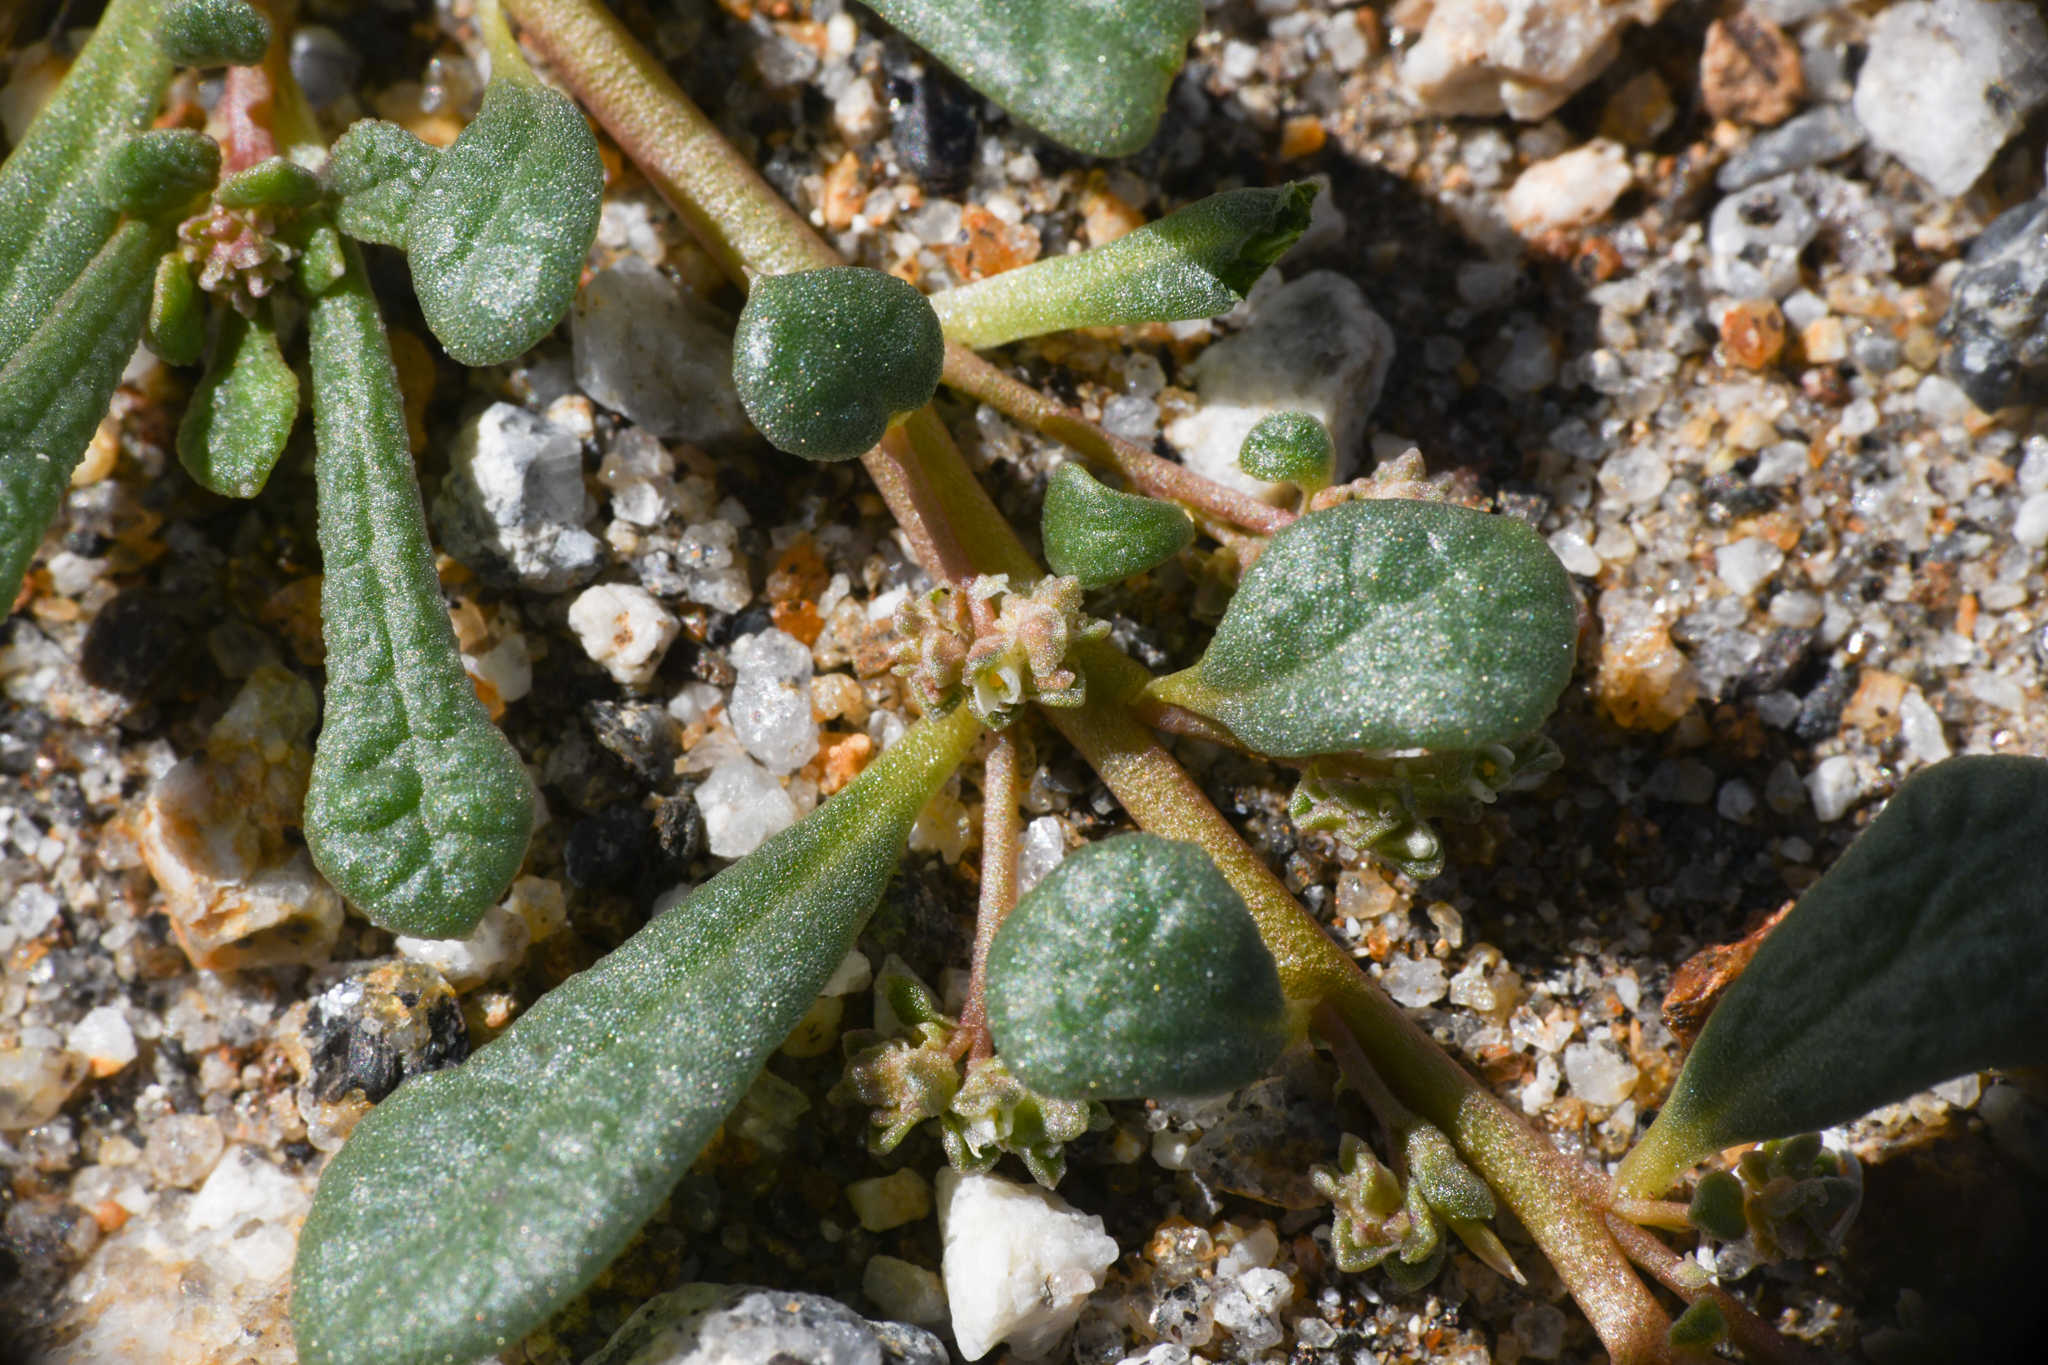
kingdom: Plantae
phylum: Tracheophyta
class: Magnoliopsida
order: Caryophyllales
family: Montiaceae
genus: Calyptridium
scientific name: Calyptridium monandrum
